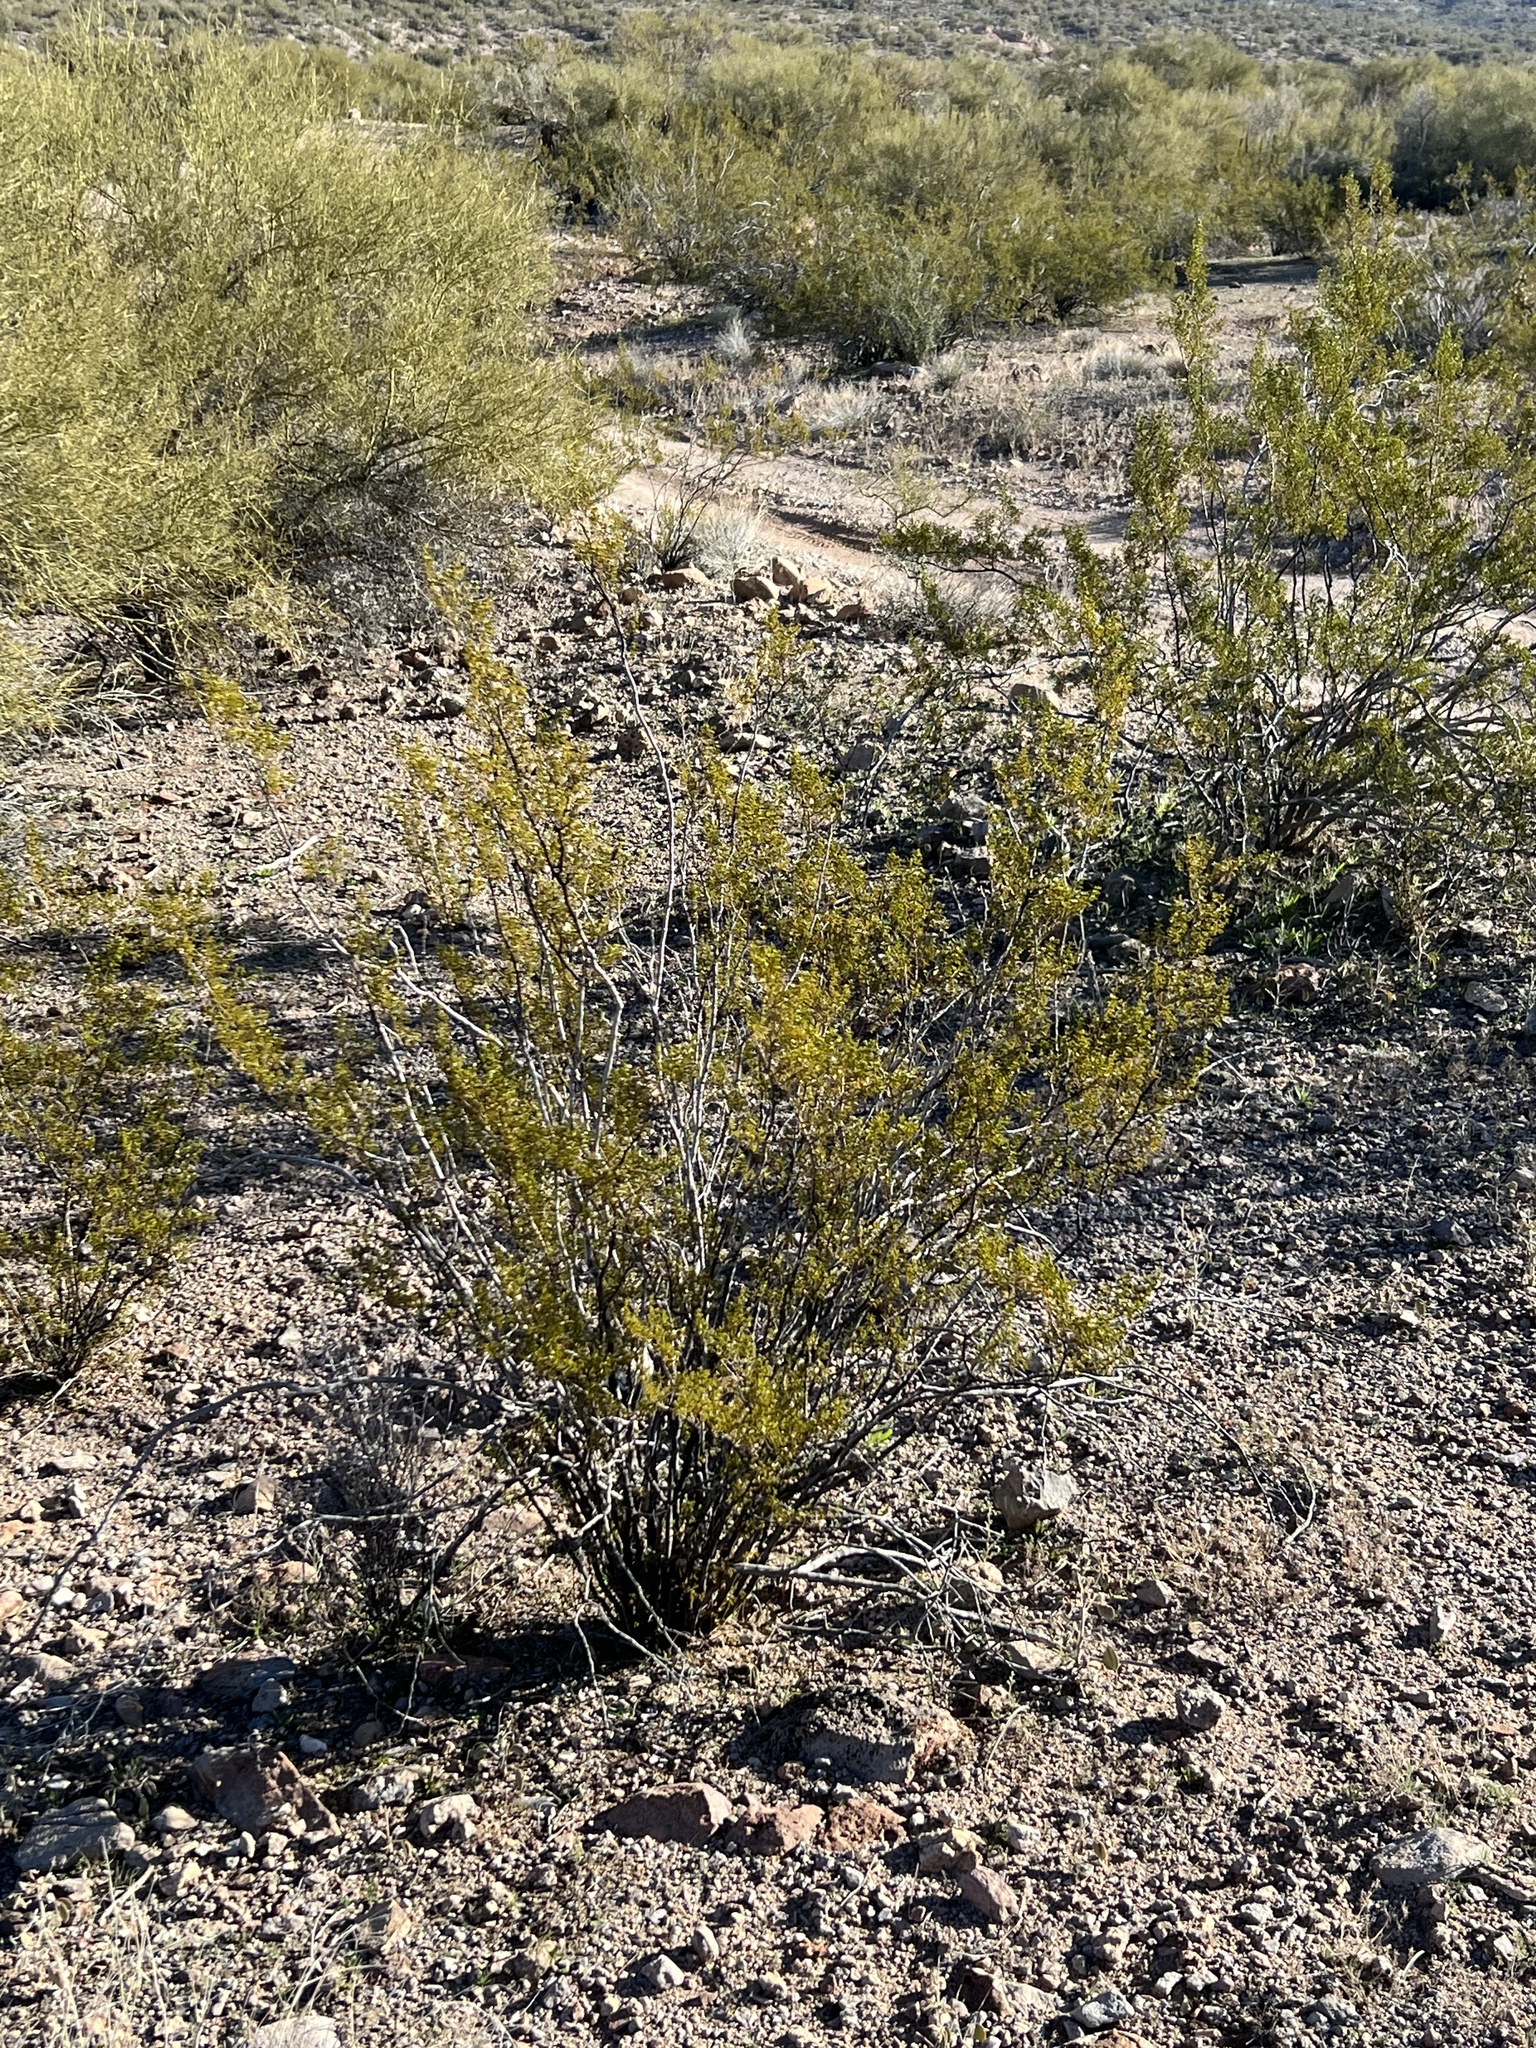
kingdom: Plantae
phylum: Tracheophyta
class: Magnoliopsida
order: Zygophyllales
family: Zygophyllaceae
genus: Larrea
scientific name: Larrea tridentata
